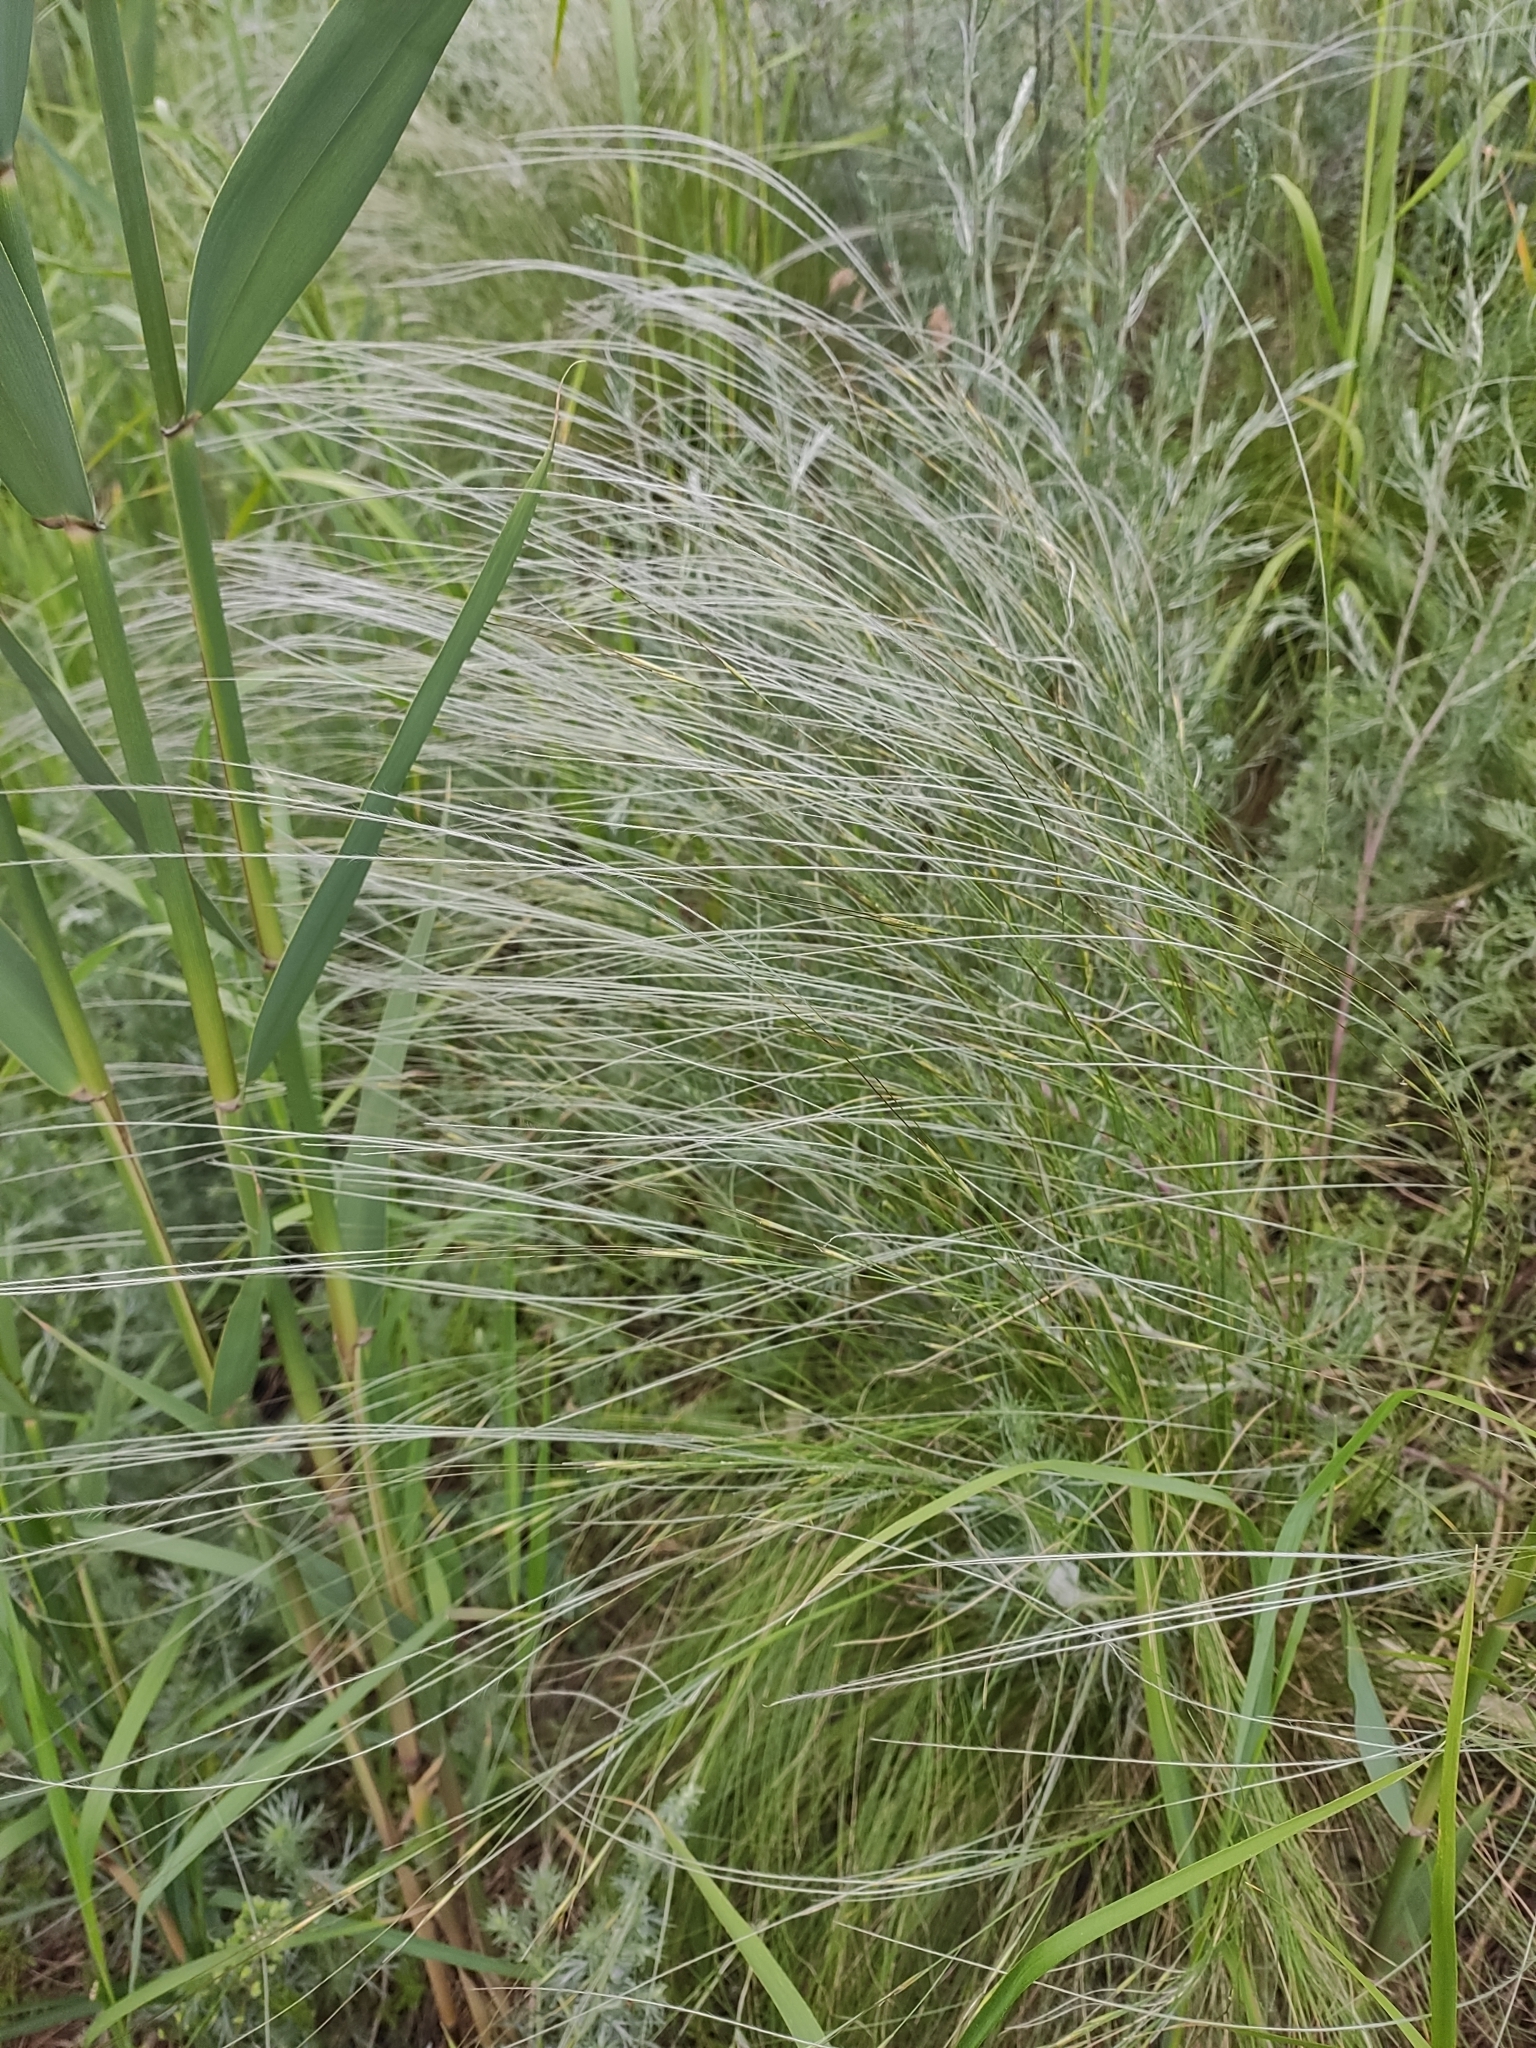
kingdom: Plantae
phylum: Tracheophyta
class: Liliopsida
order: Poales
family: Poaceae
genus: Stipa
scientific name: Stipa lessingiana
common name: Needle grass
